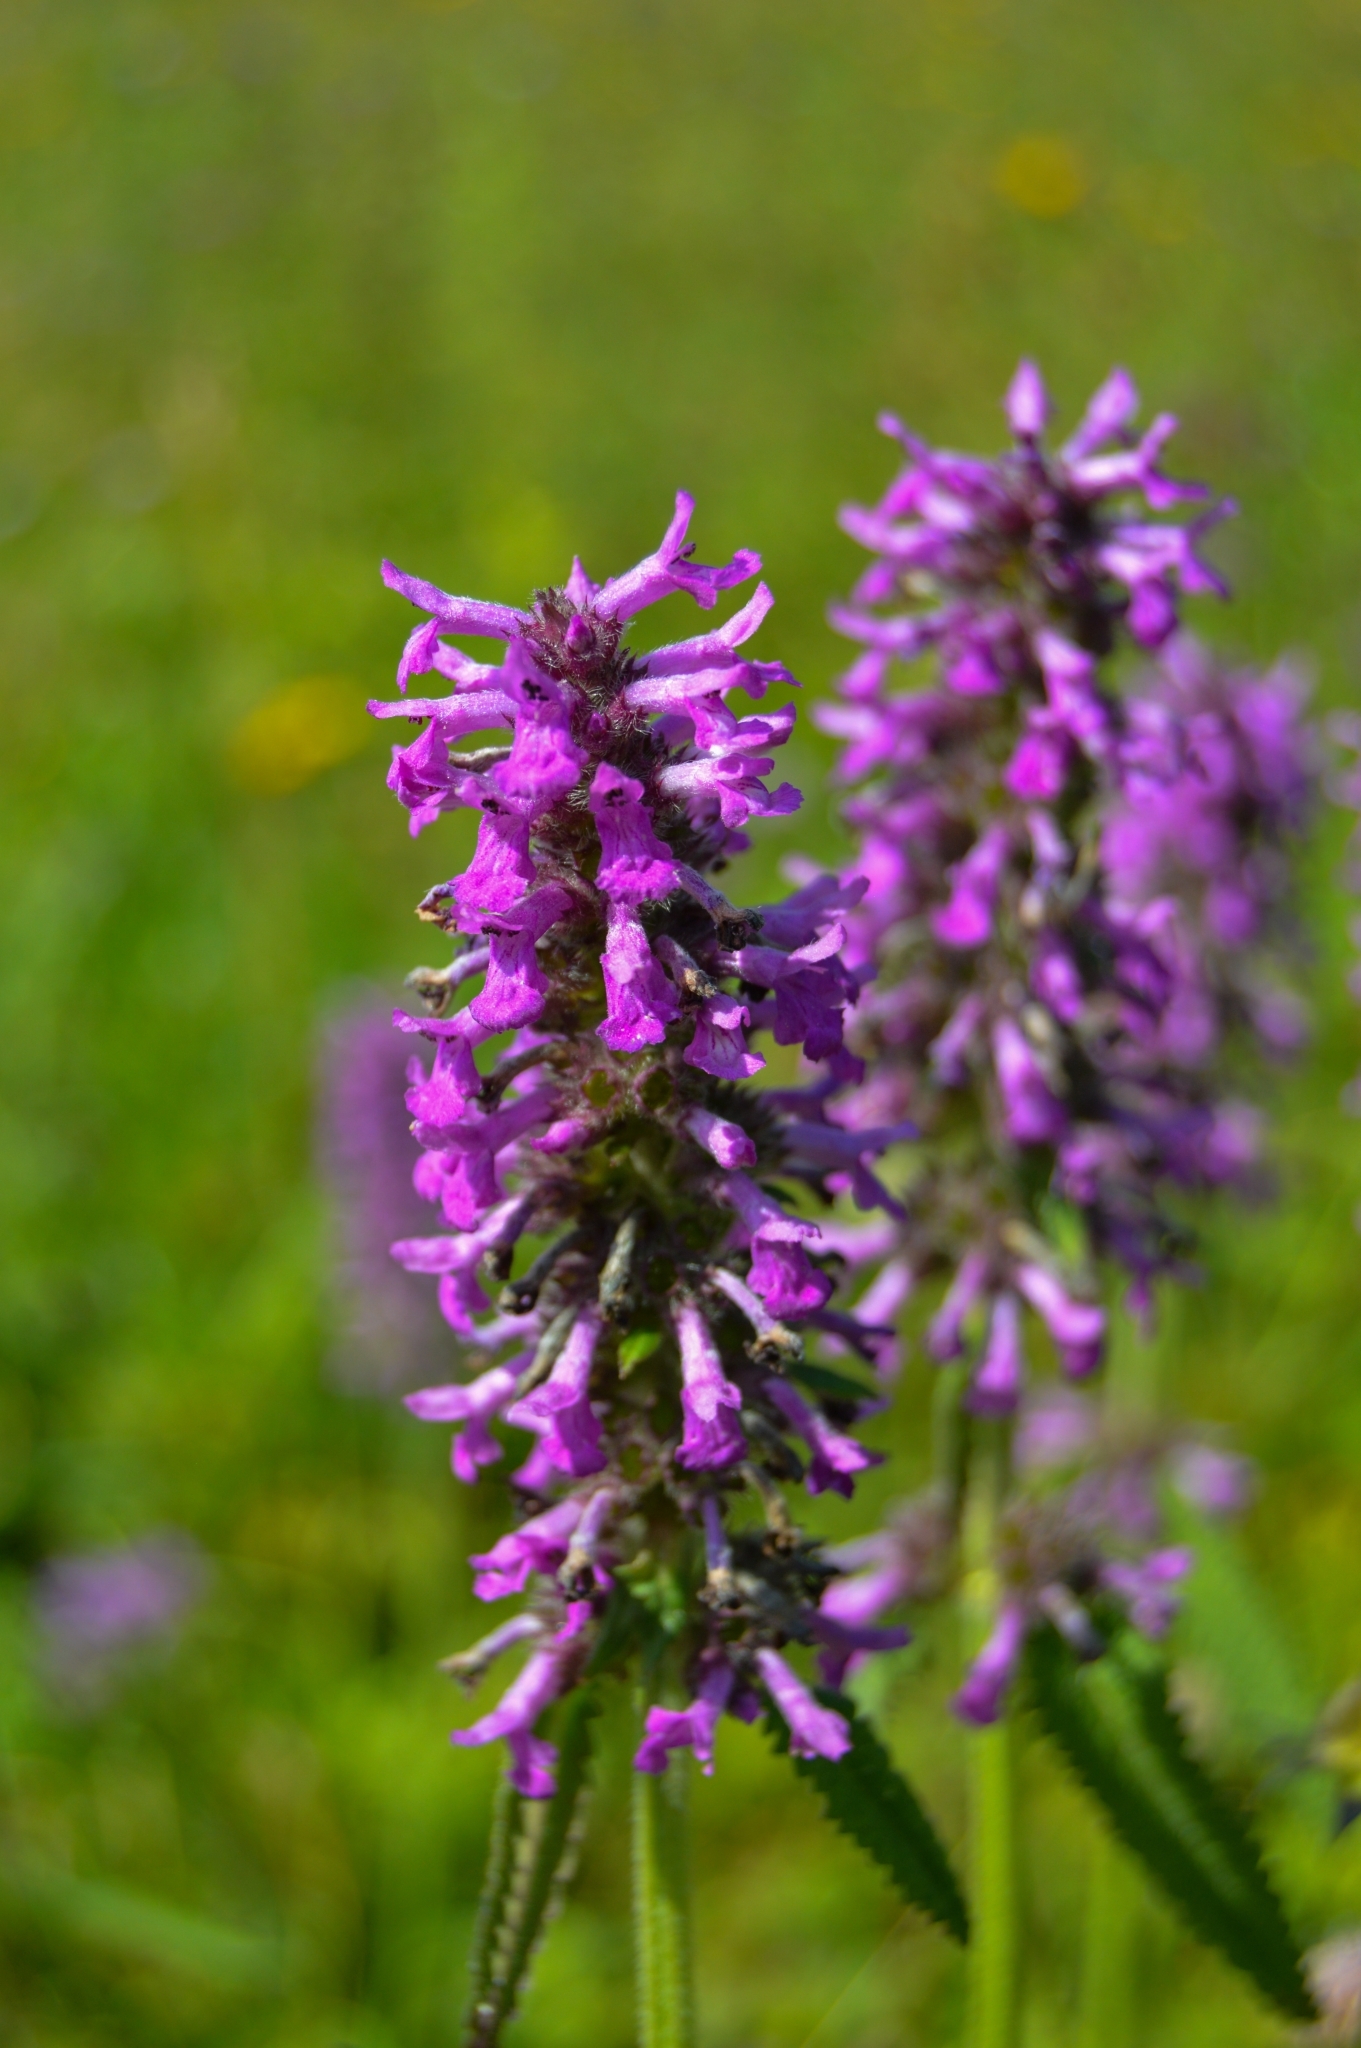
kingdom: Plantae
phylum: Tracheophyta
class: Magnoliopsida
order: Lamiales
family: Lamiaceae
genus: Betonica
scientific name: Betonica officinalis
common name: Bishop's-wort
